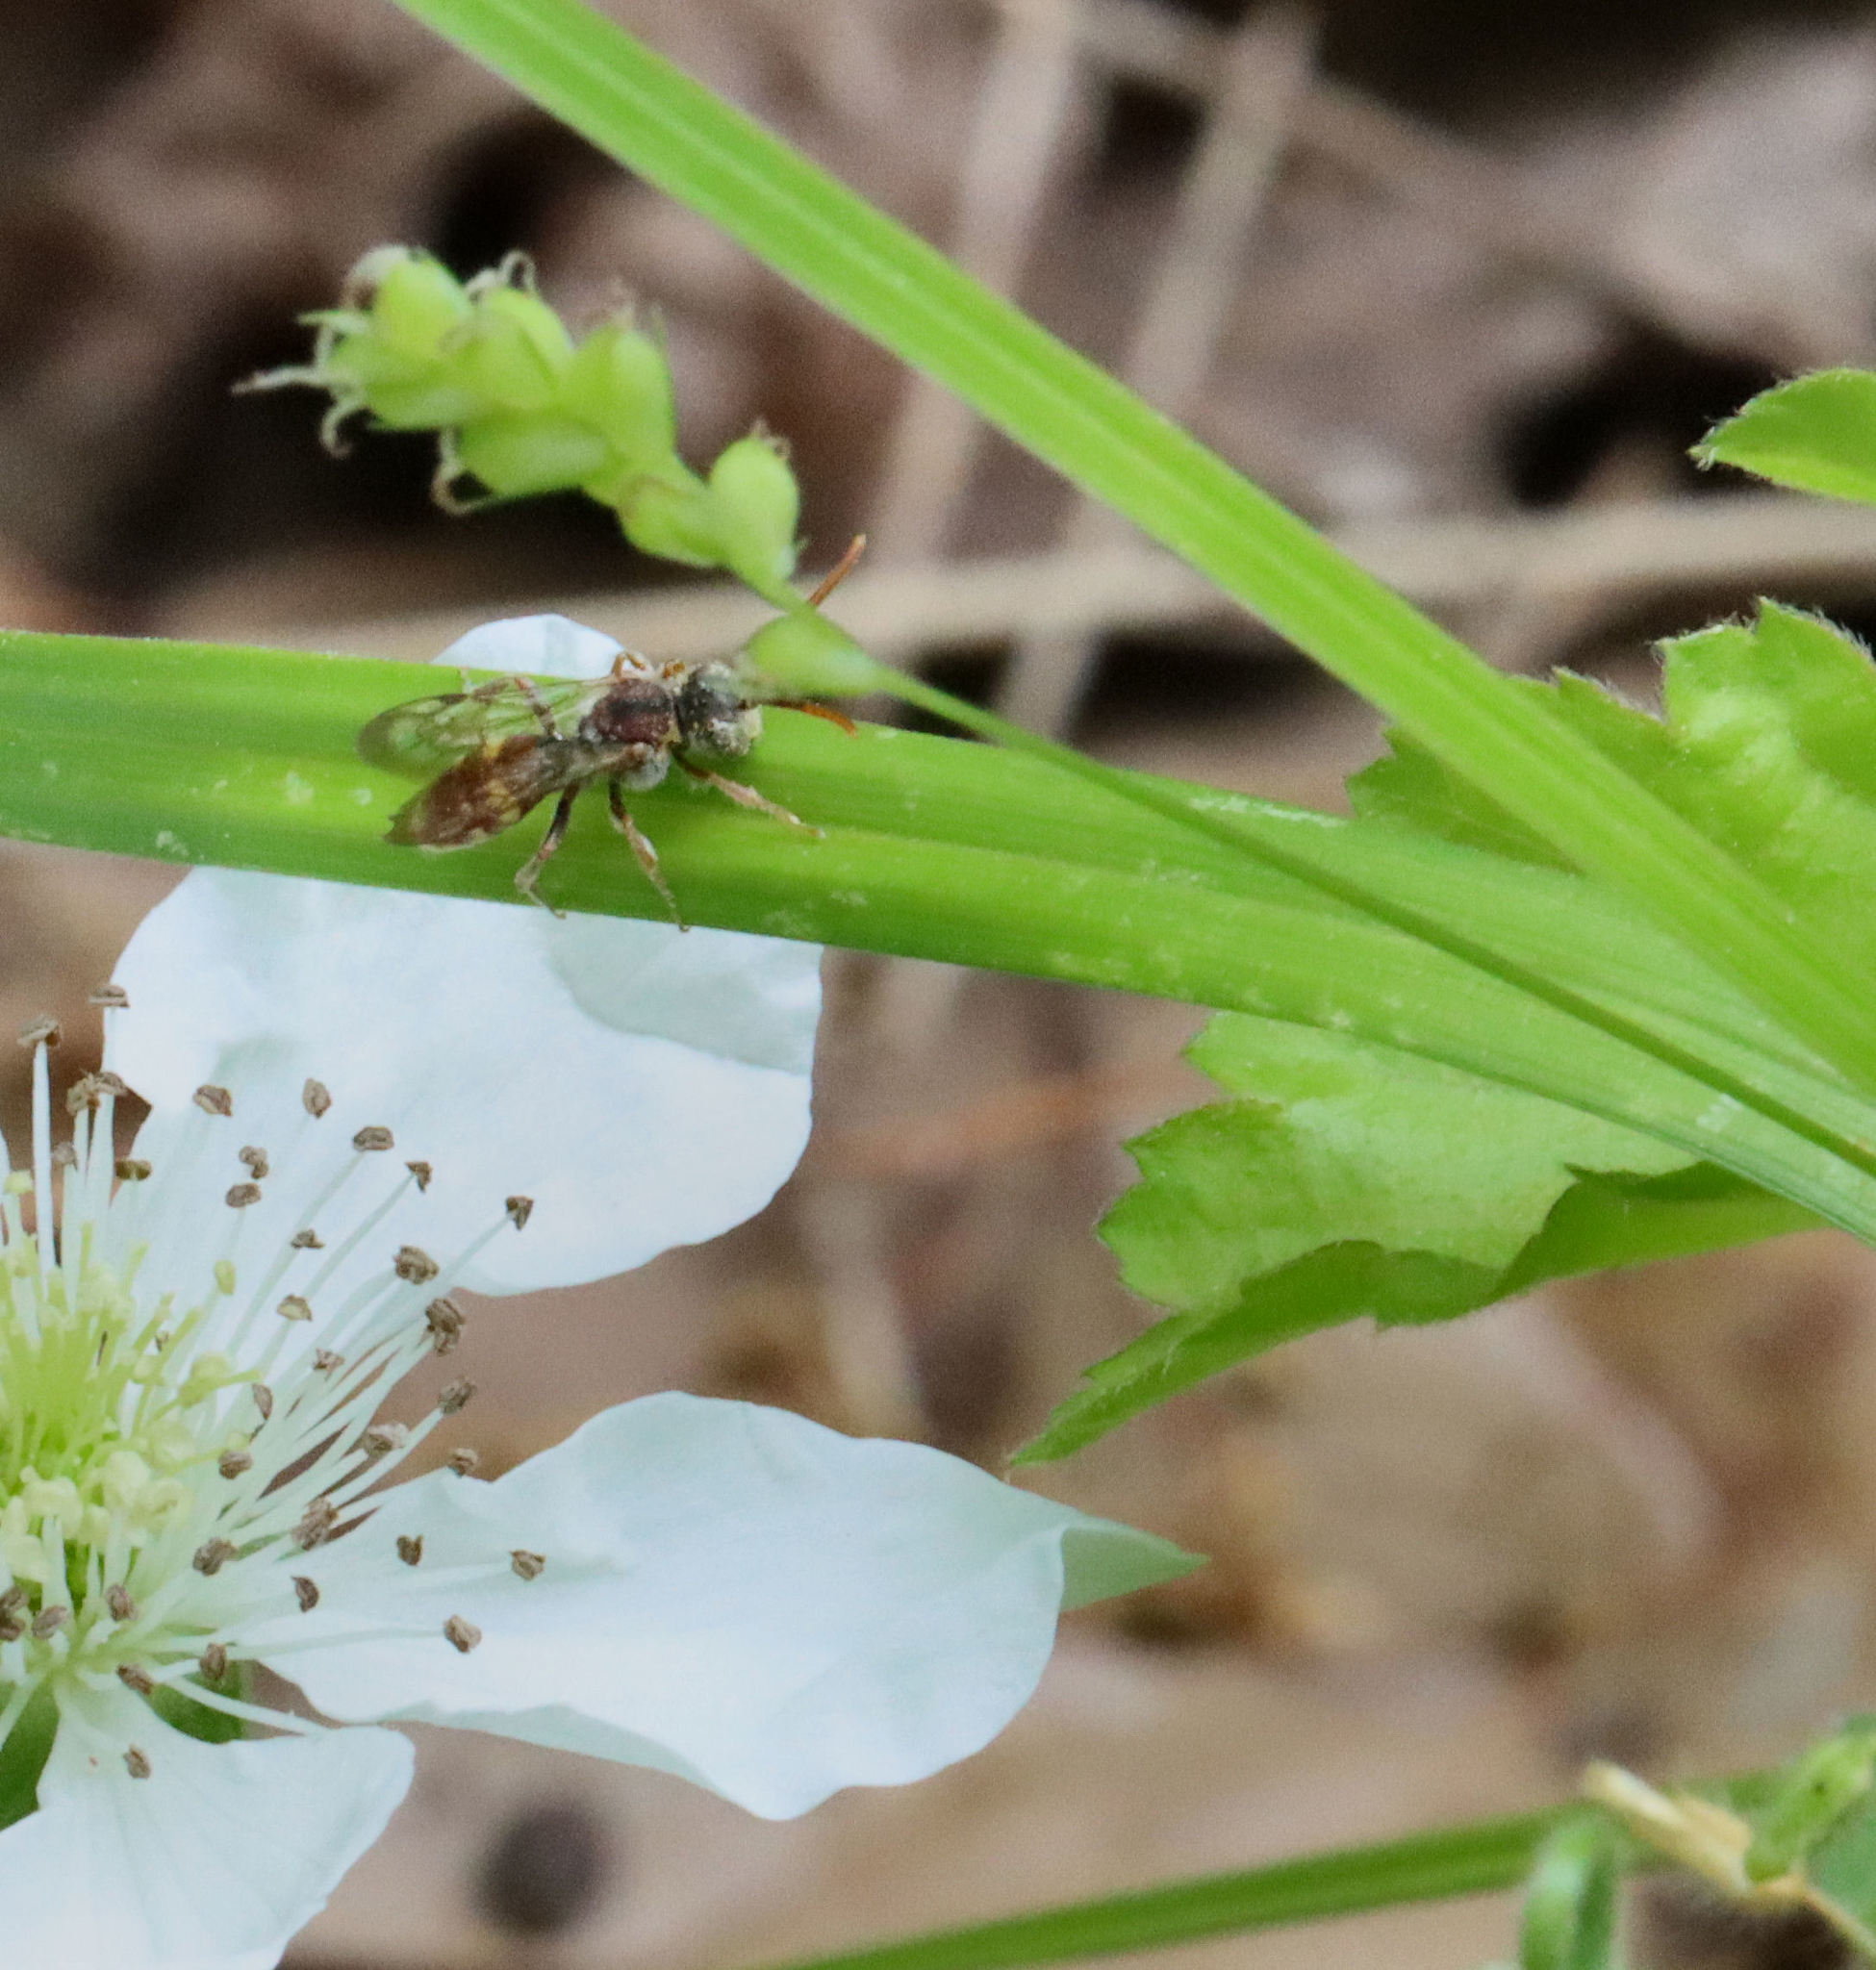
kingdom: Animalia
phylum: Arthropoda
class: Insecta
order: Hymenoptera
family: Apidae
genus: Nomada
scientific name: Nomada
